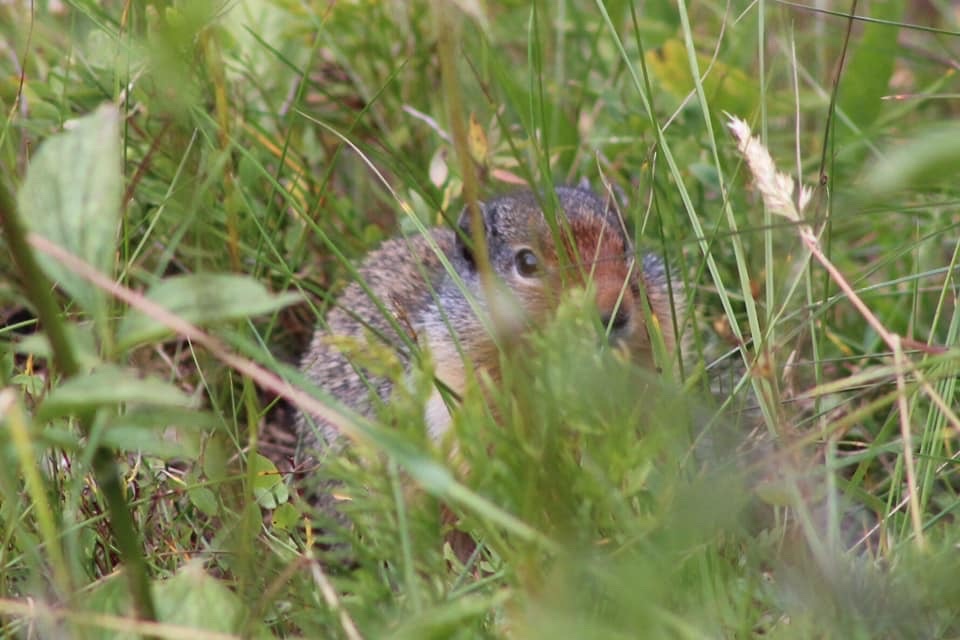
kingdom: Animalia
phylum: Chordata
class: Mammalia
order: Rodentia
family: Sciuridae
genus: Urocitellus
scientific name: Urocitellus columbianus
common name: Columbian ground squirrel
